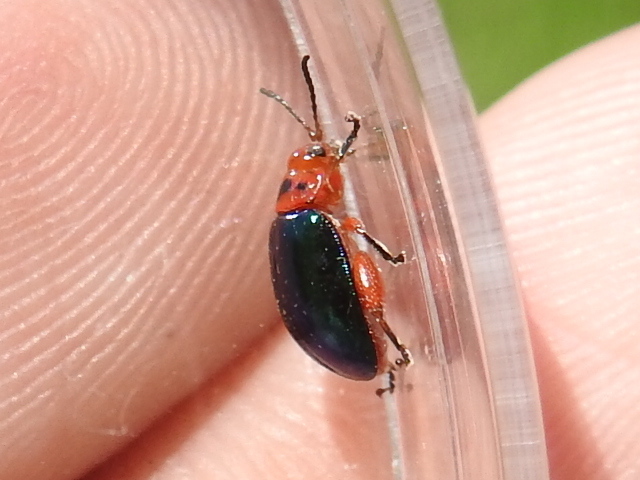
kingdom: Animalia
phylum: Arthropoda
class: Insecta
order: Coleoptera
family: Chrysomelidae
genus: Kuschelina
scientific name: Kuschelina gibbitarsa
